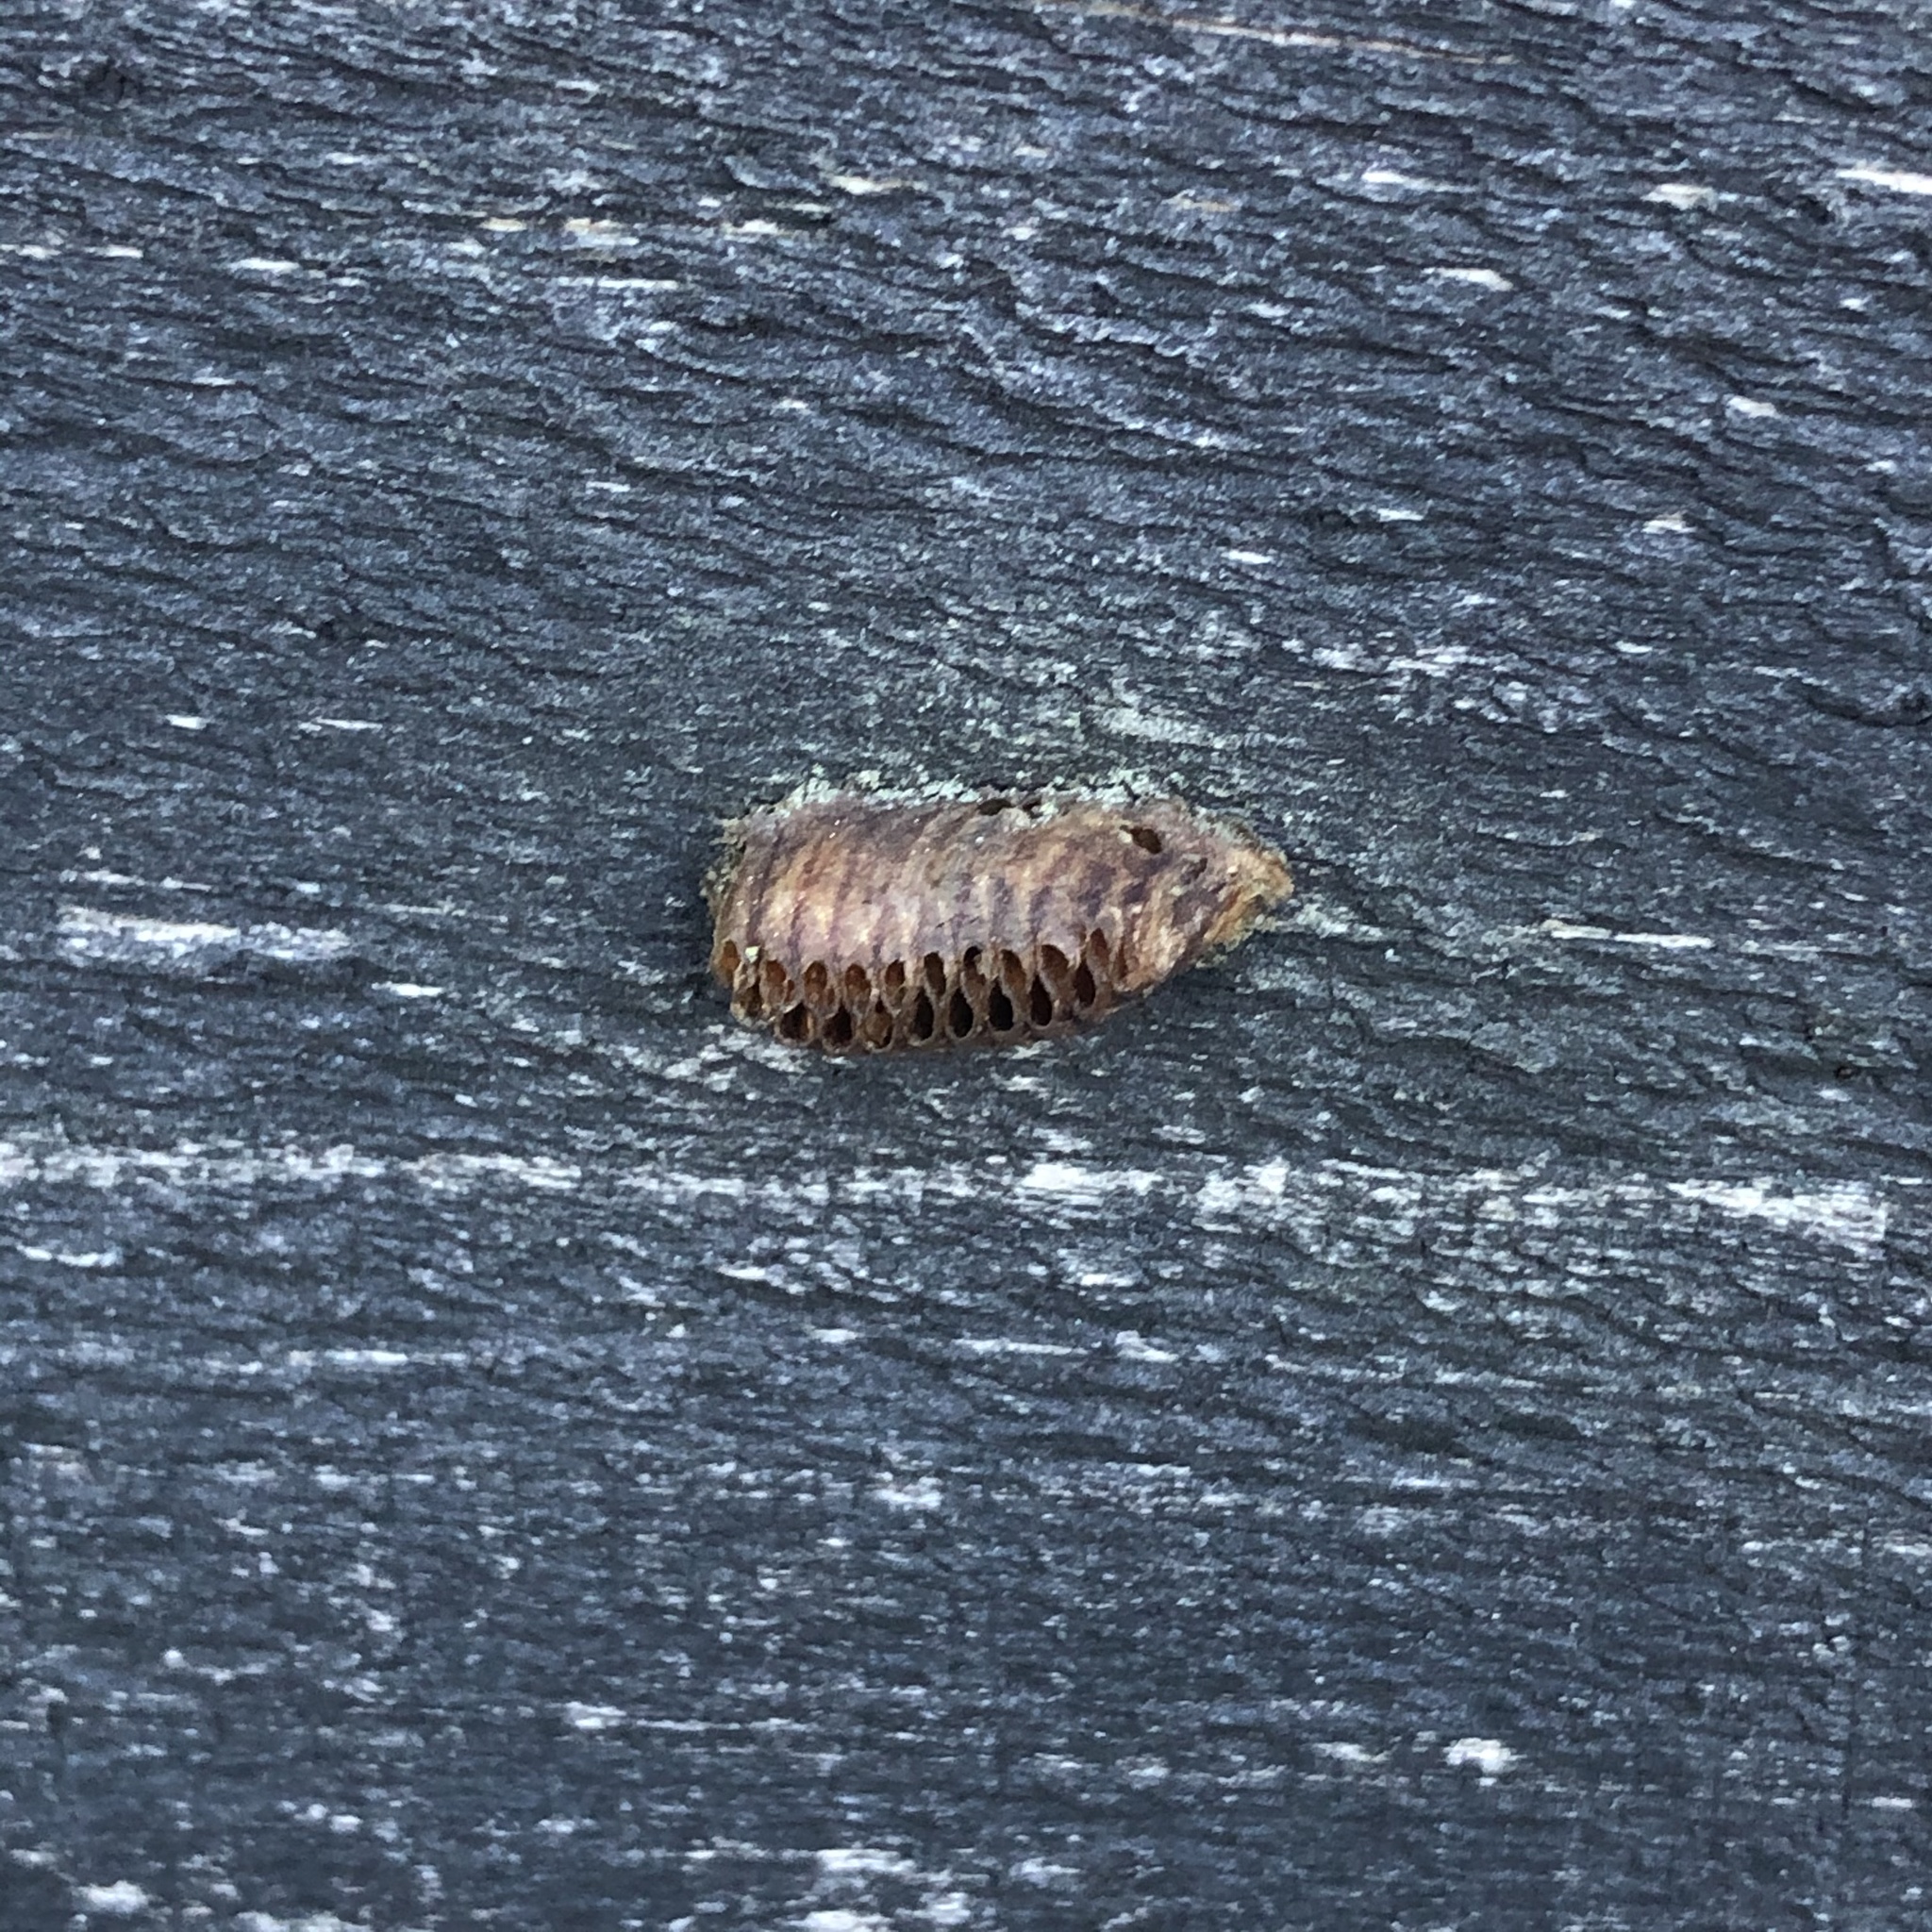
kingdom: Animalia
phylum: Arthropoda
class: Insecta
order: Mantodea
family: Mantidae
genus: Orthodera
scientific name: Orthodera novaezealandiae
